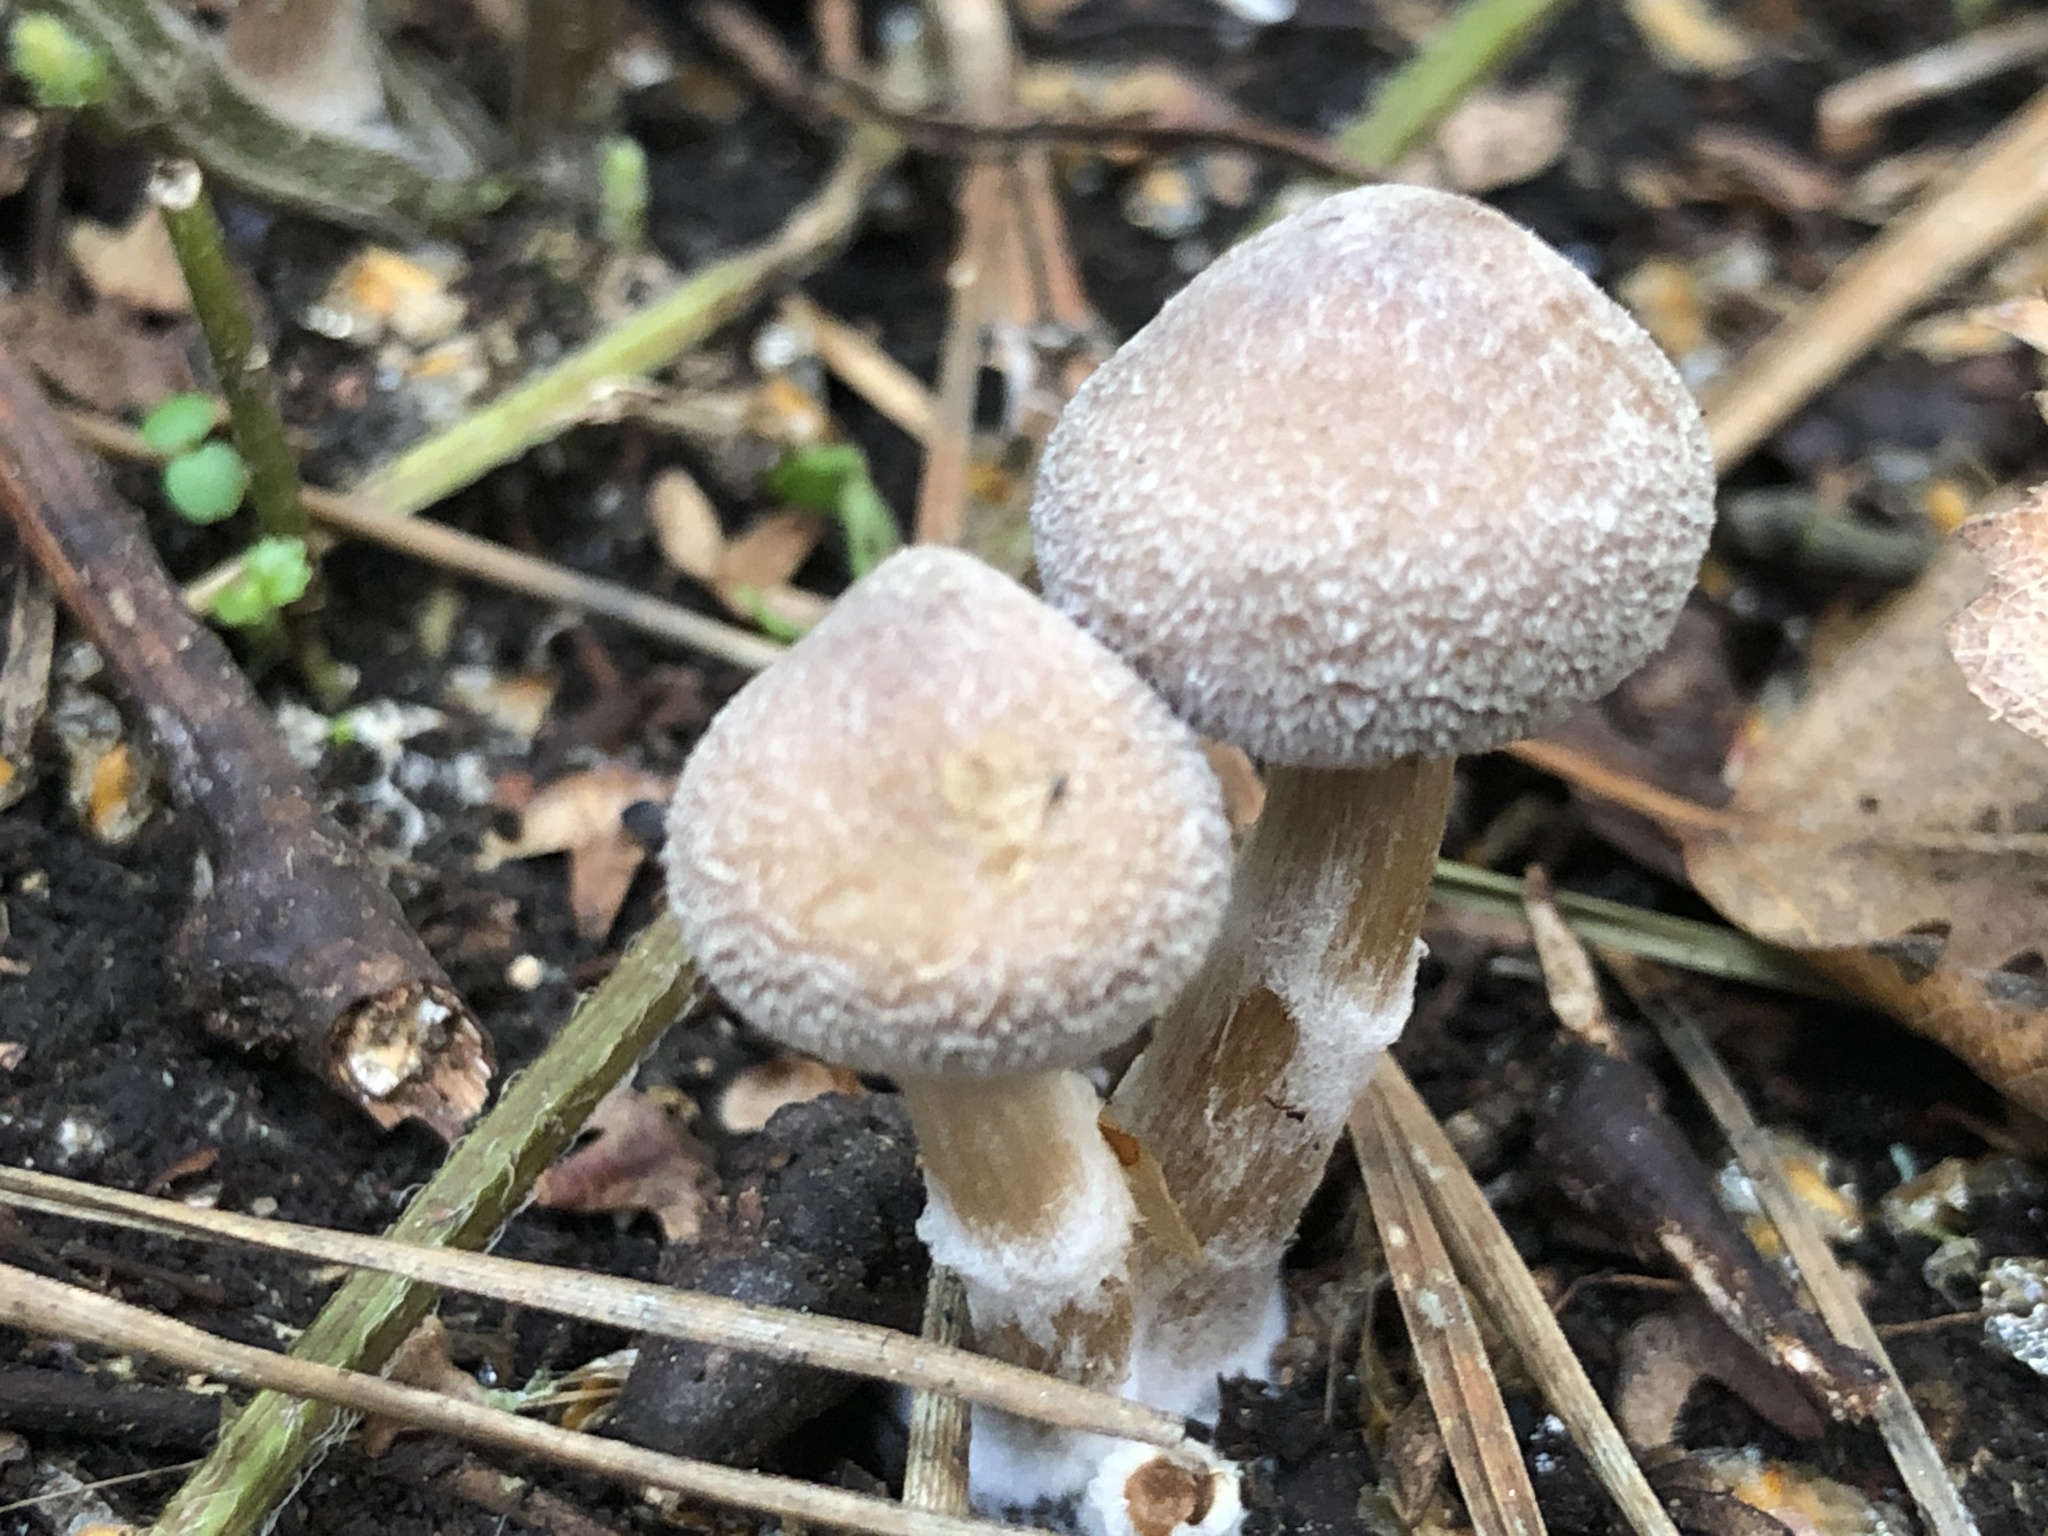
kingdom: Fungi
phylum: Basidiomycota
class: Agaricomycetes
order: Agaricales
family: Cortinariaceae
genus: Cortinarius
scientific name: Cortinarius flexipes
